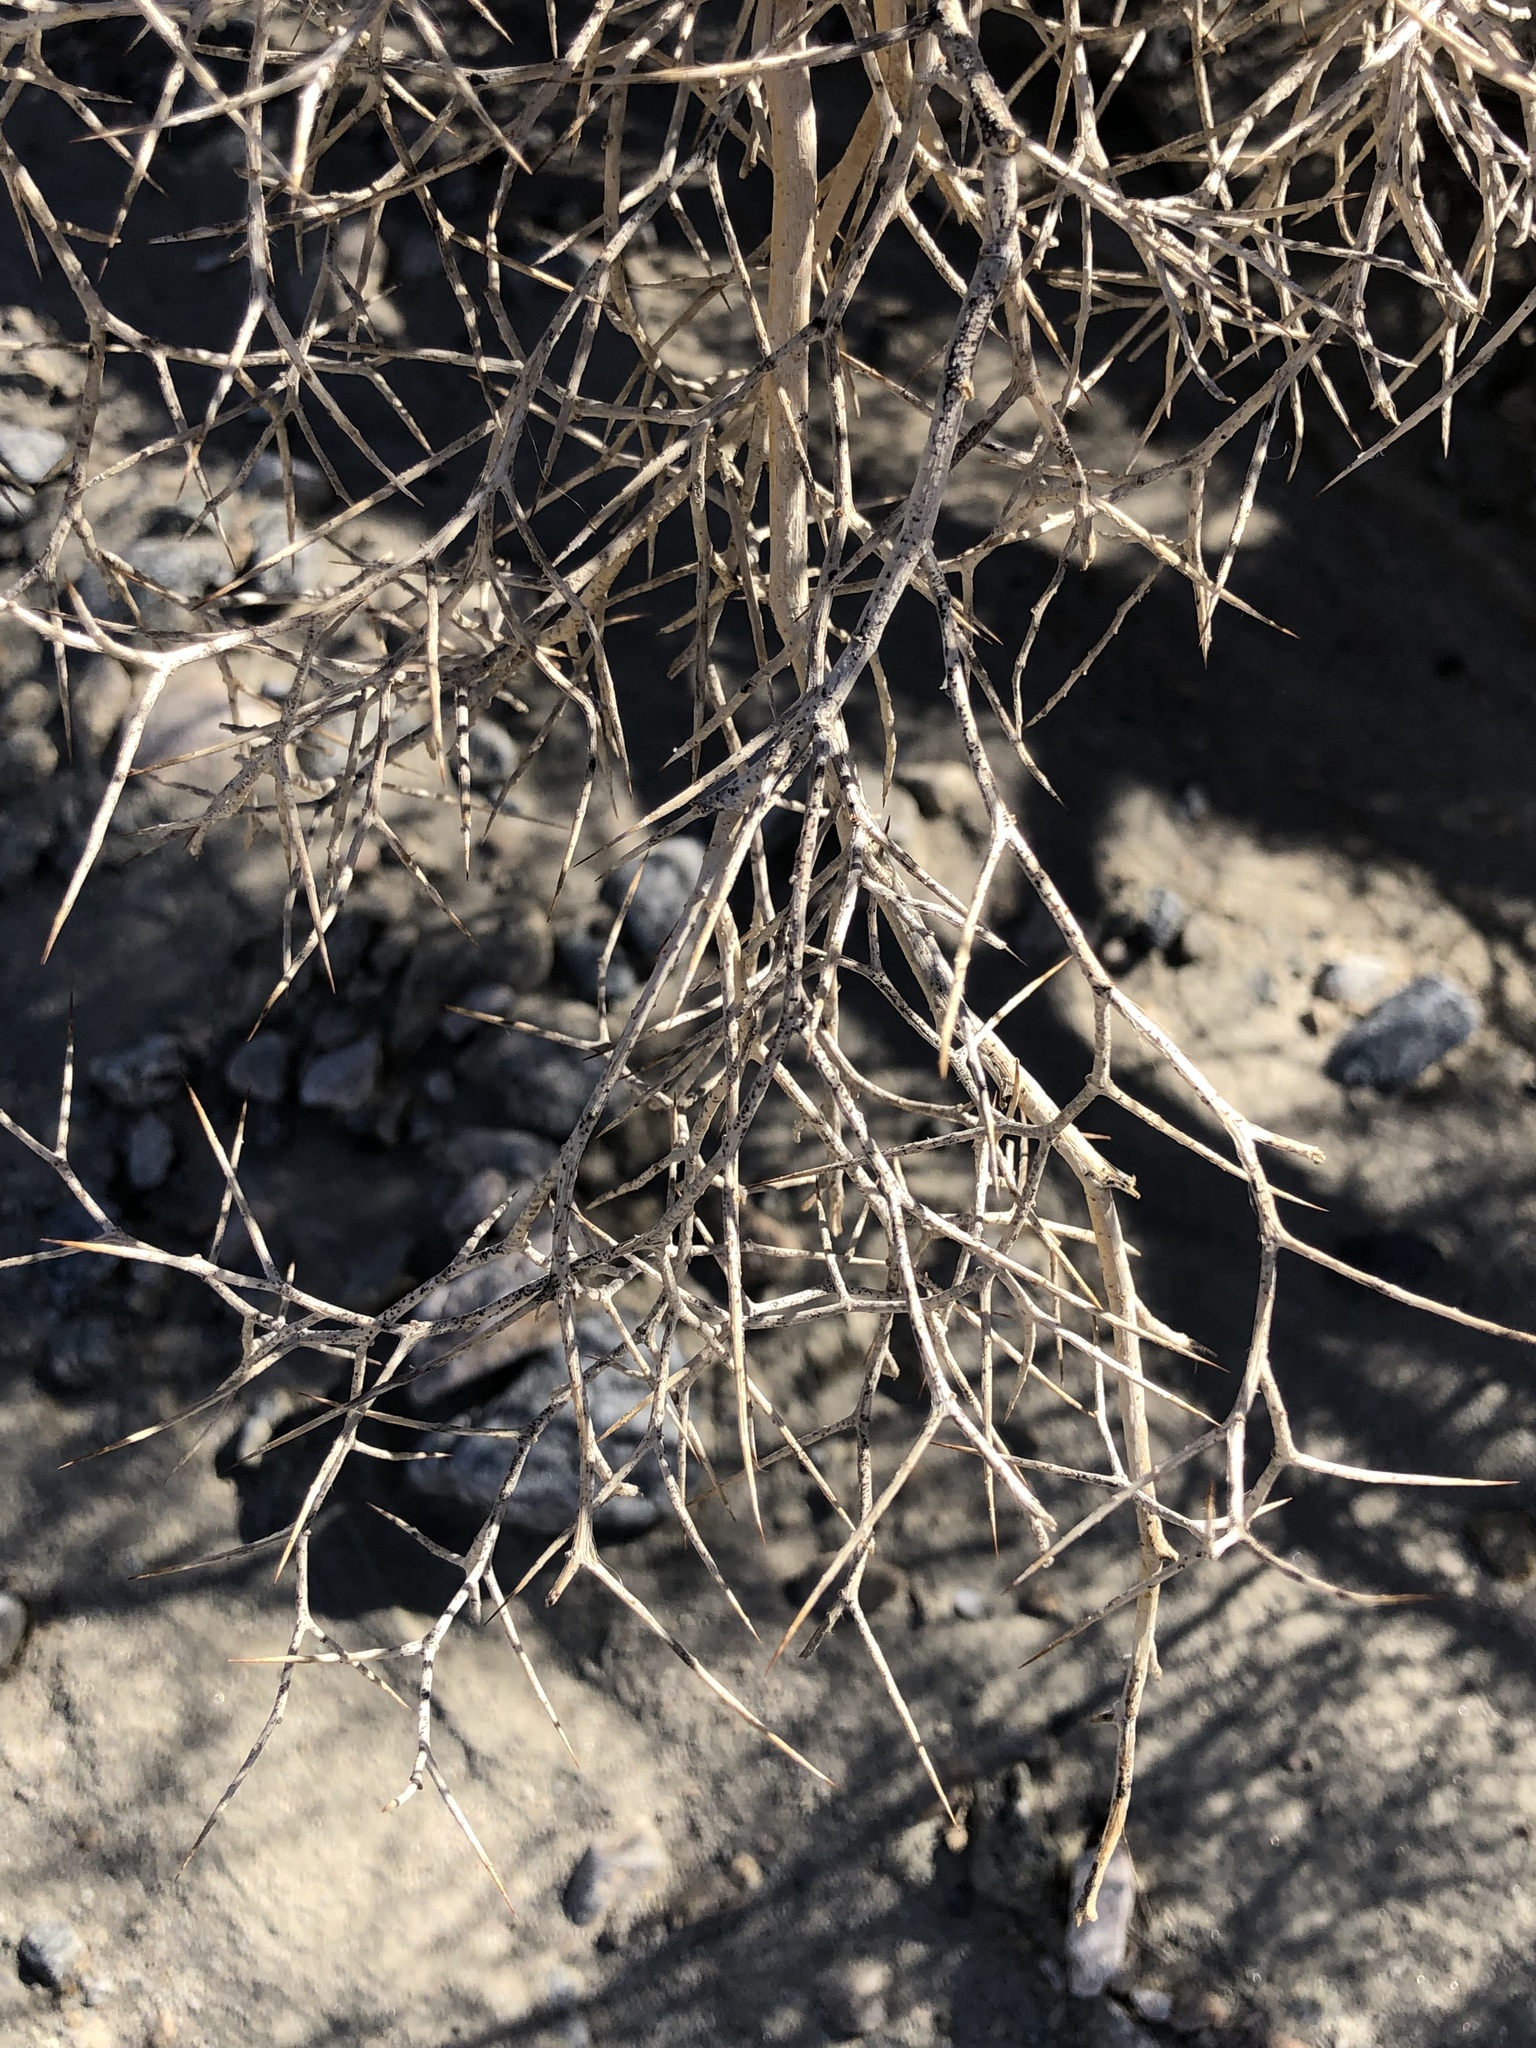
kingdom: Plantae
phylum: Tracheophyta
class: Magnoliopsida
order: Fabales
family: Fabaceae
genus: Psorothamnus
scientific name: Psorothamnus spinosus
